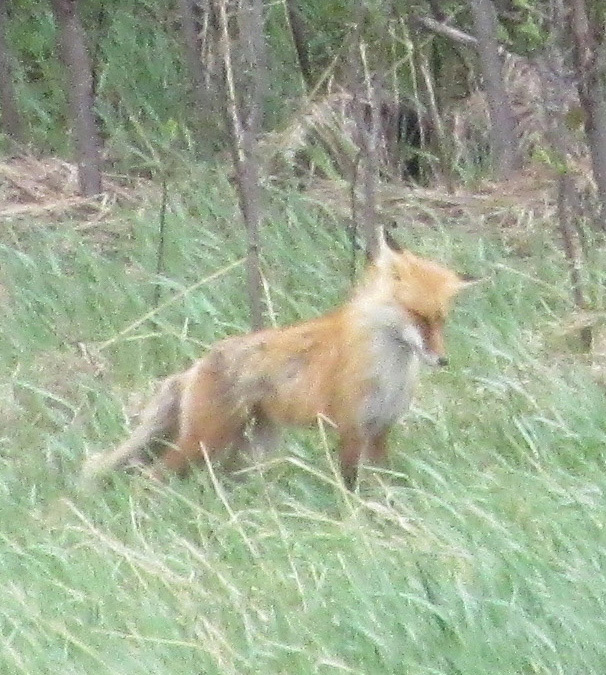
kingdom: Animalia
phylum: Chordata
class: Mammalia
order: Carnivora
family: Canidae
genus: Vulpes
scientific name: Vulpes vulpes
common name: Red fox
